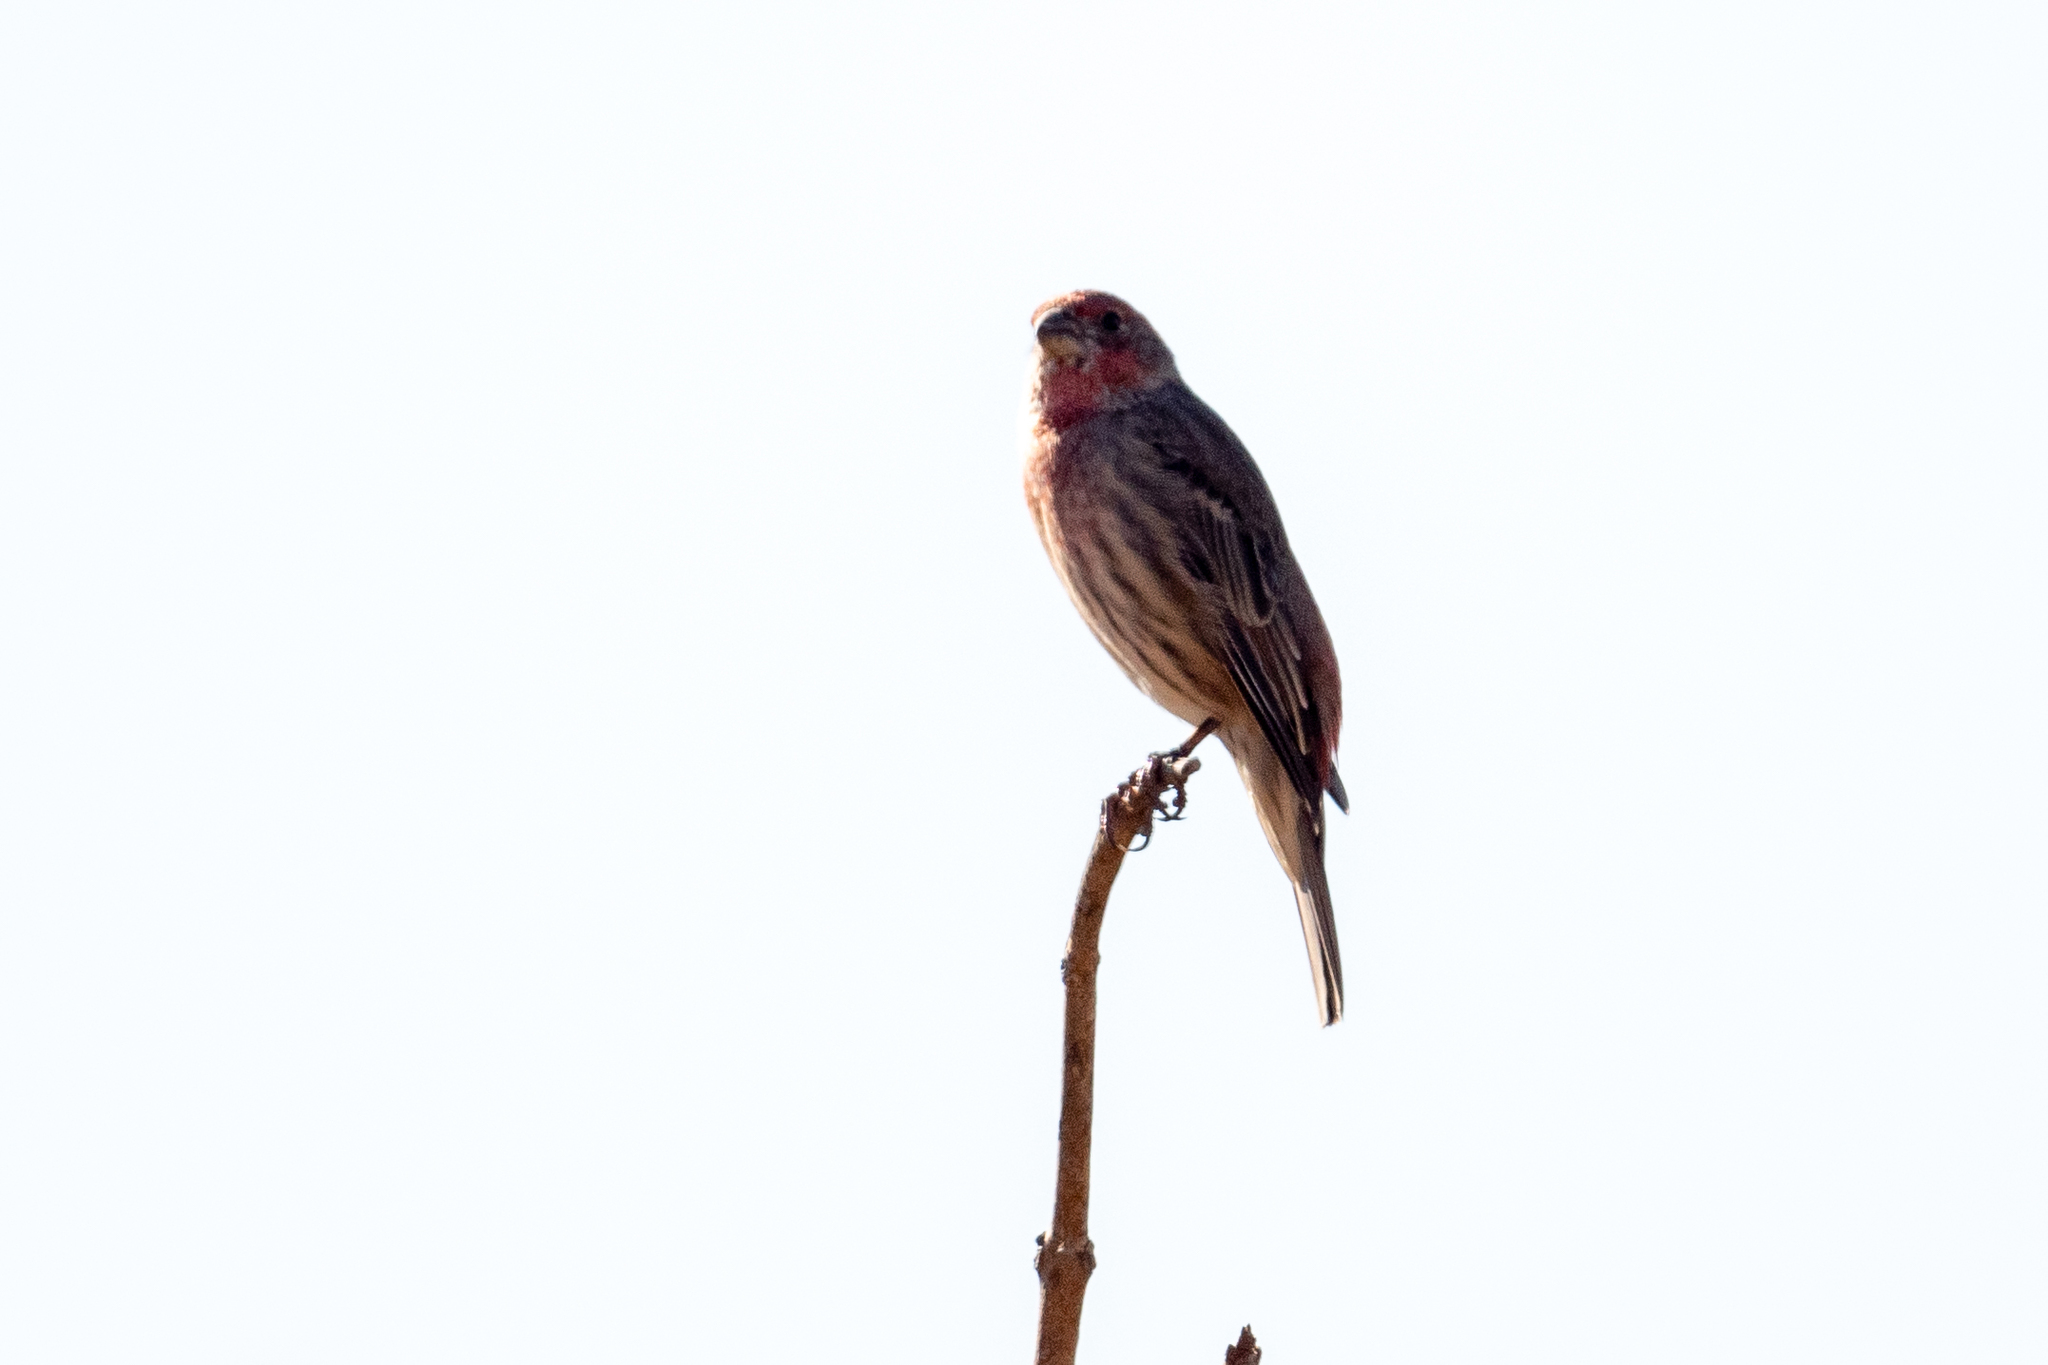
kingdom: Animalia
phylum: Chordata
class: Aves
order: Passeriformes
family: Fringillidae
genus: Haemorhous
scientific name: Haemorhous mexicanus
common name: House finch
